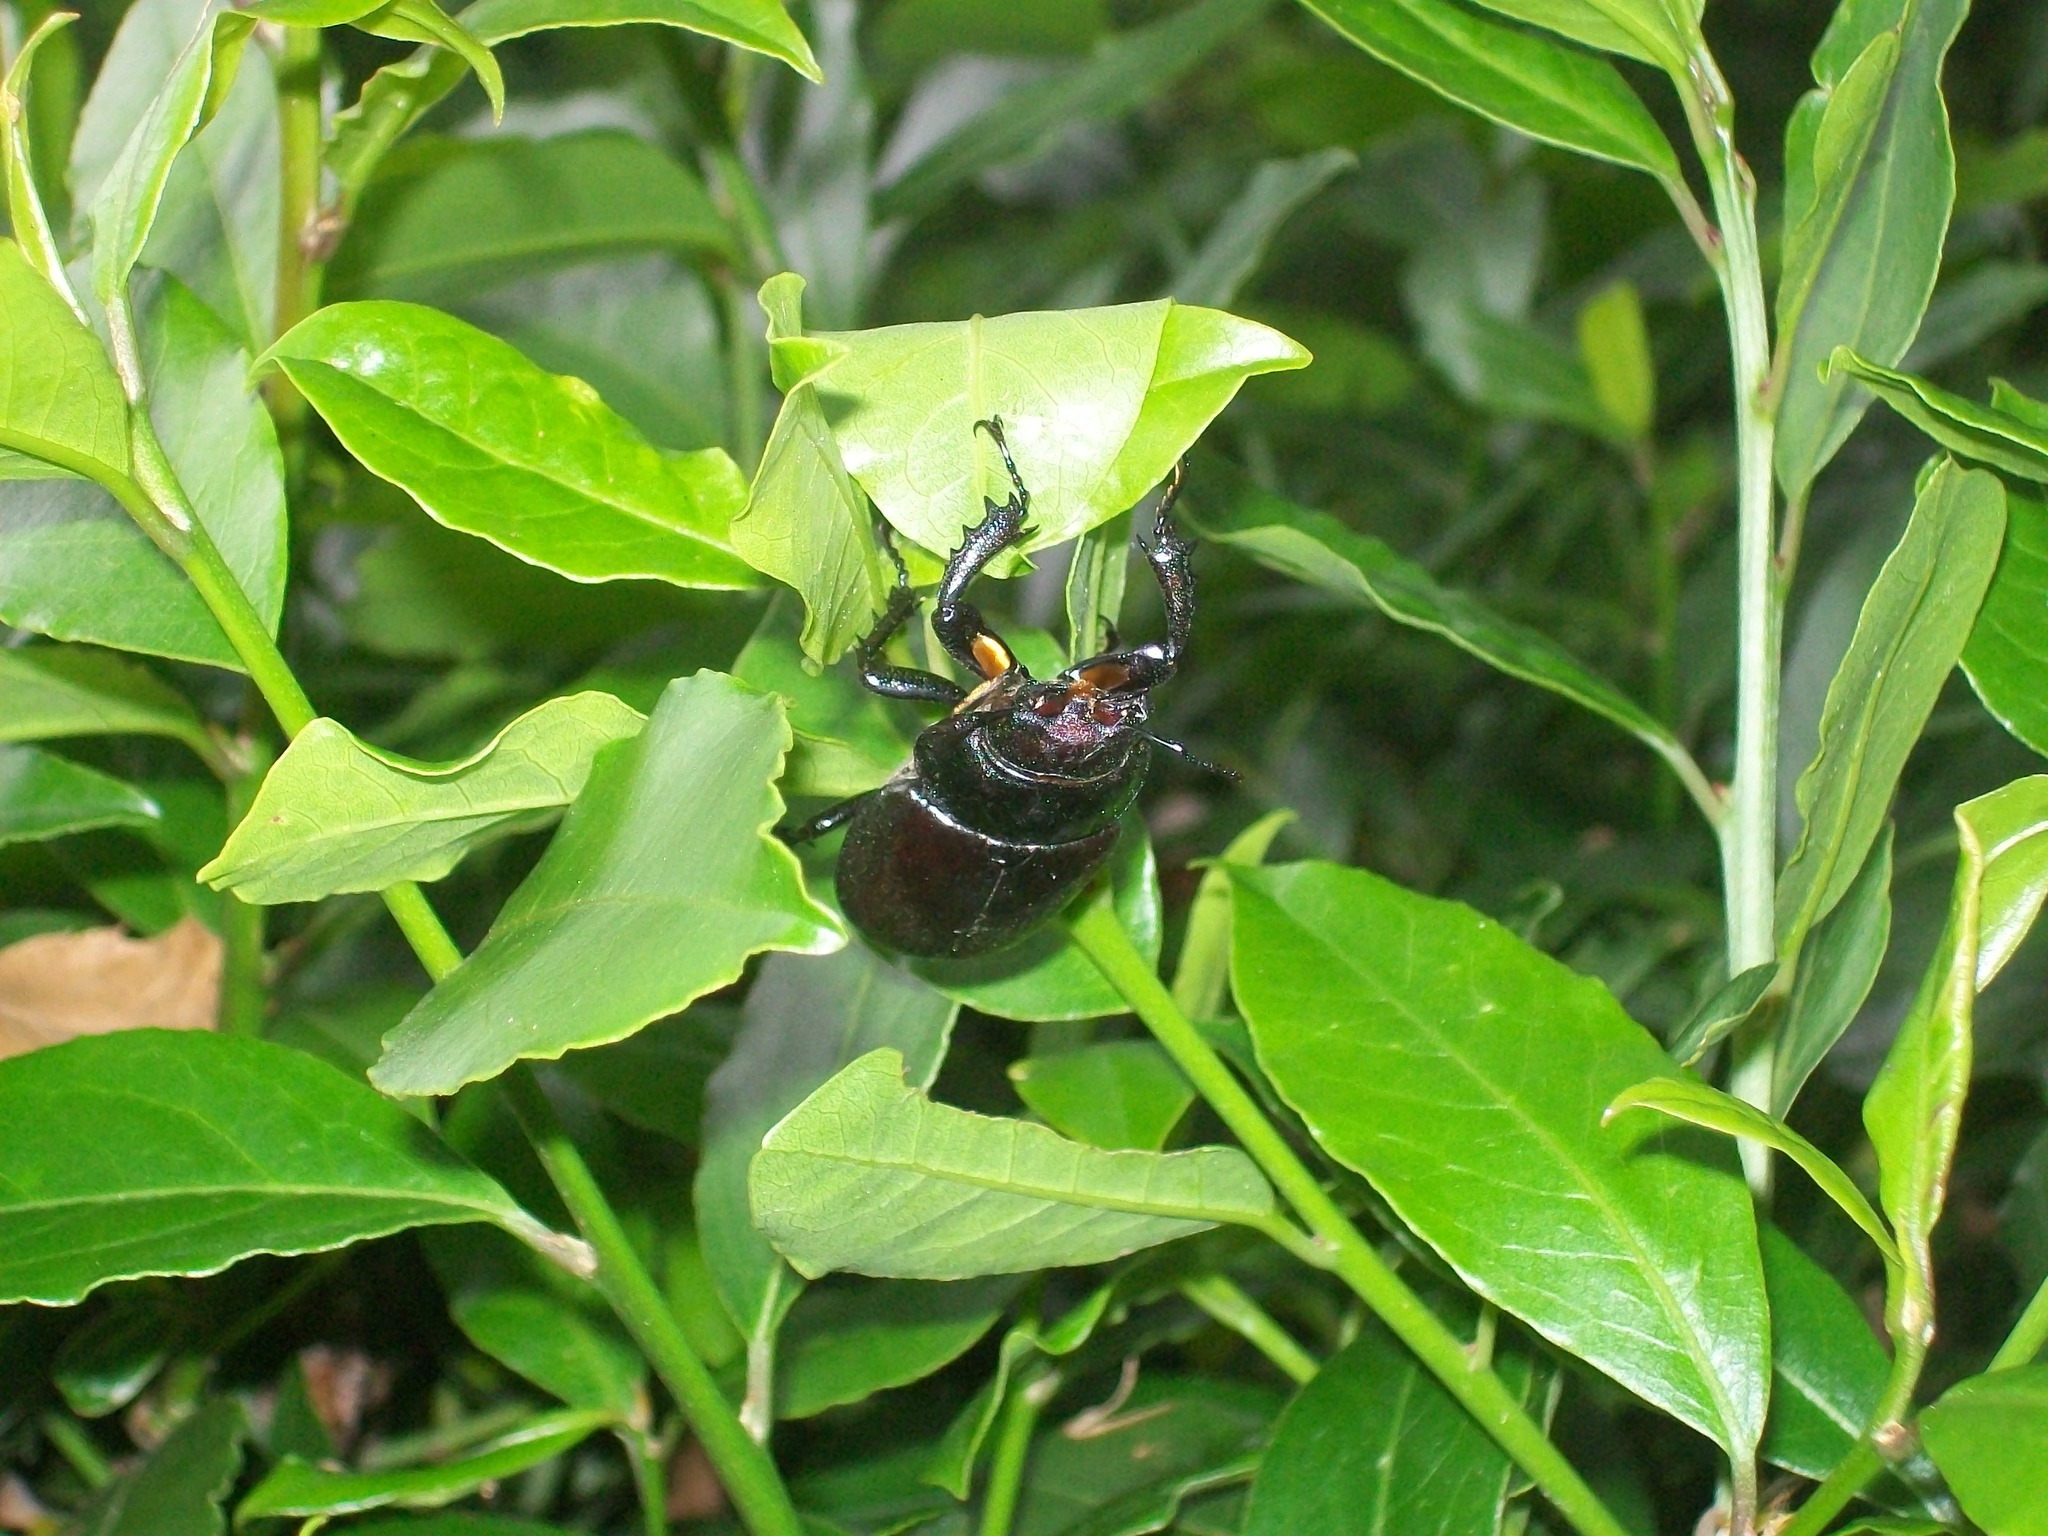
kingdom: Animalia
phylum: Arthropoda
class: Insecta
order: Coleoptera
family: Lucanidae
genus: Lucanus
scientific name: Lucanus cervus
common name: Stag beetle
